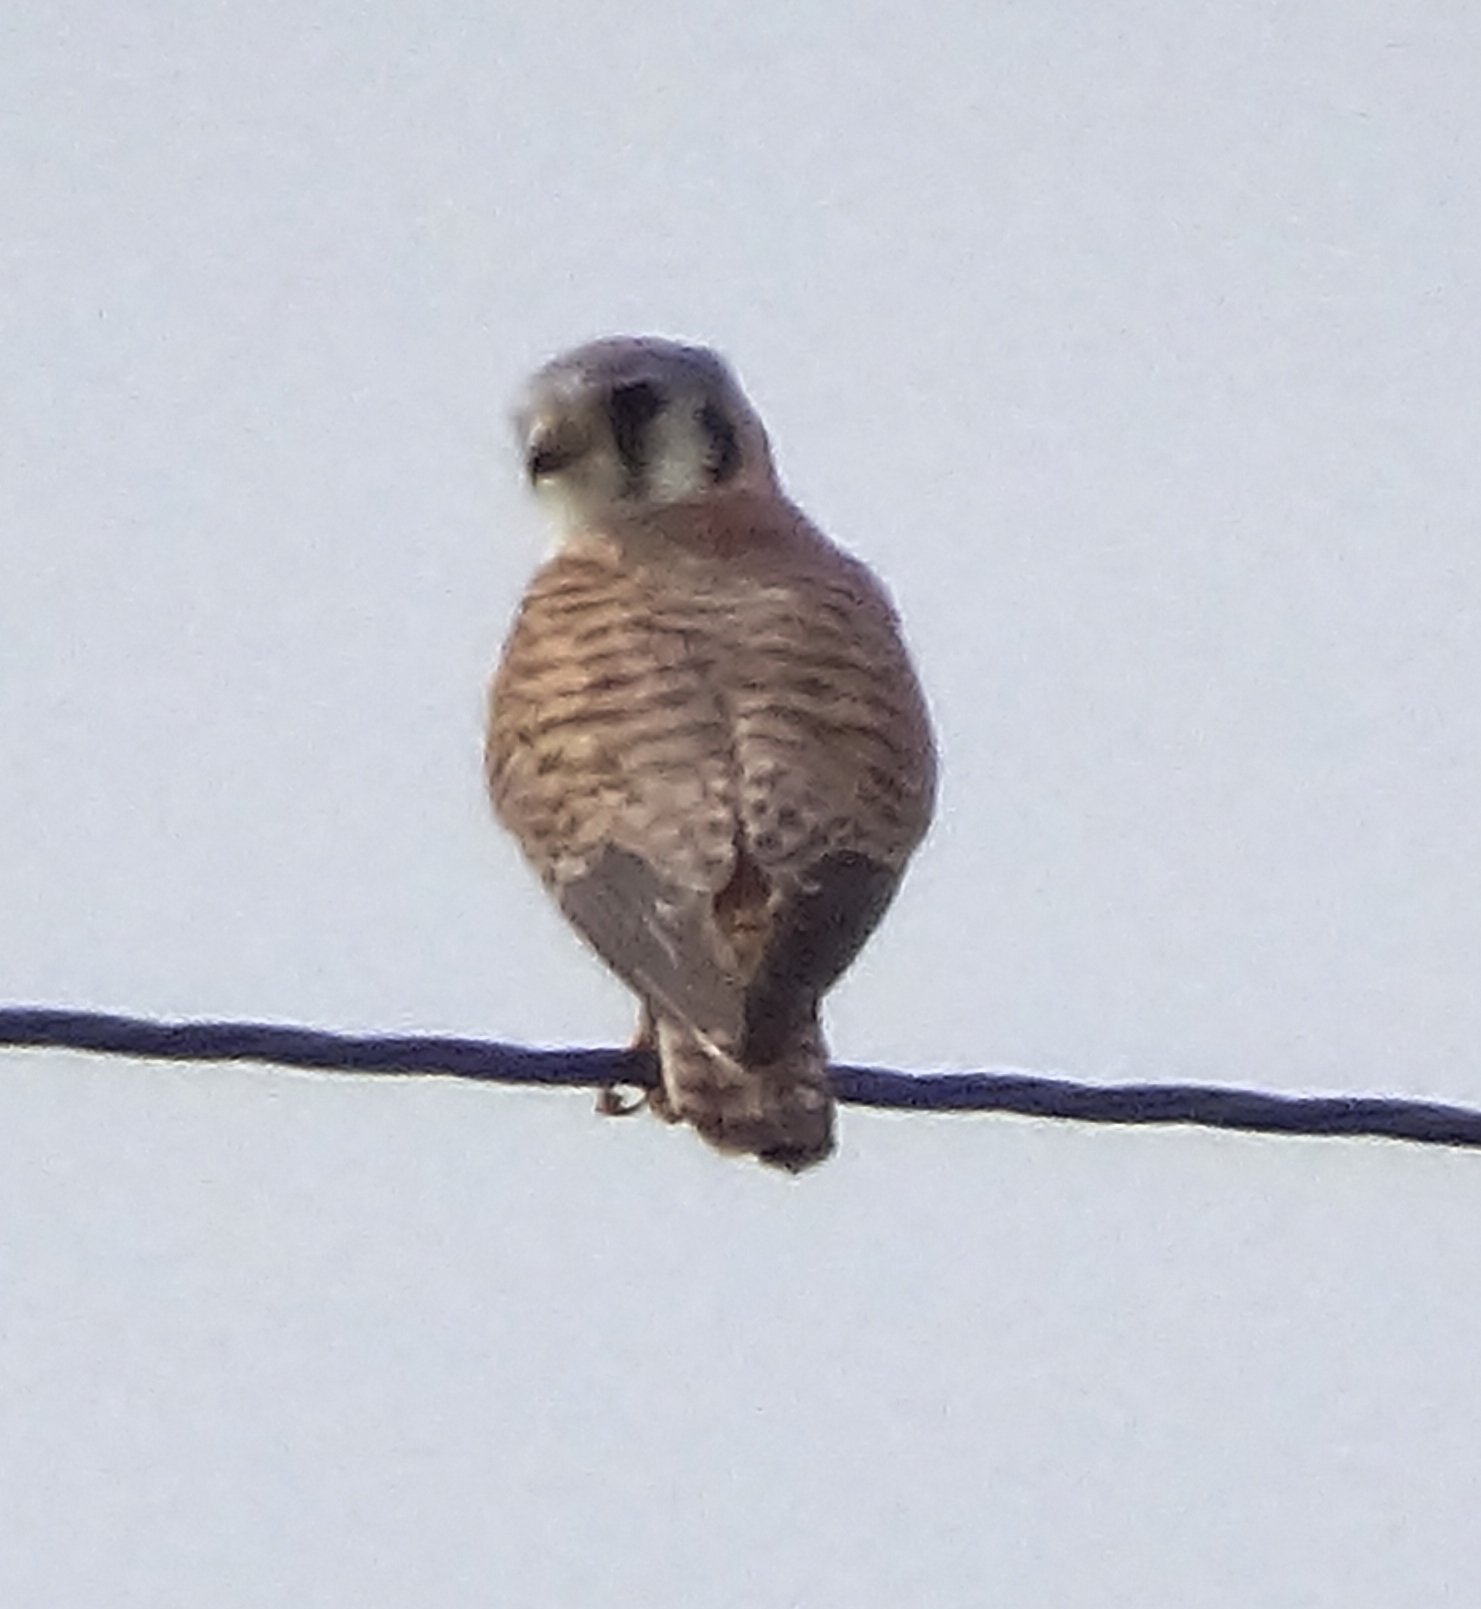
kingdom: Animalia
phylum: Chordata
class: Aves
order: Falconiformes
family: Falconidae
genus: Falco
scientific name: Falco sparverius
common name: American kestrel
